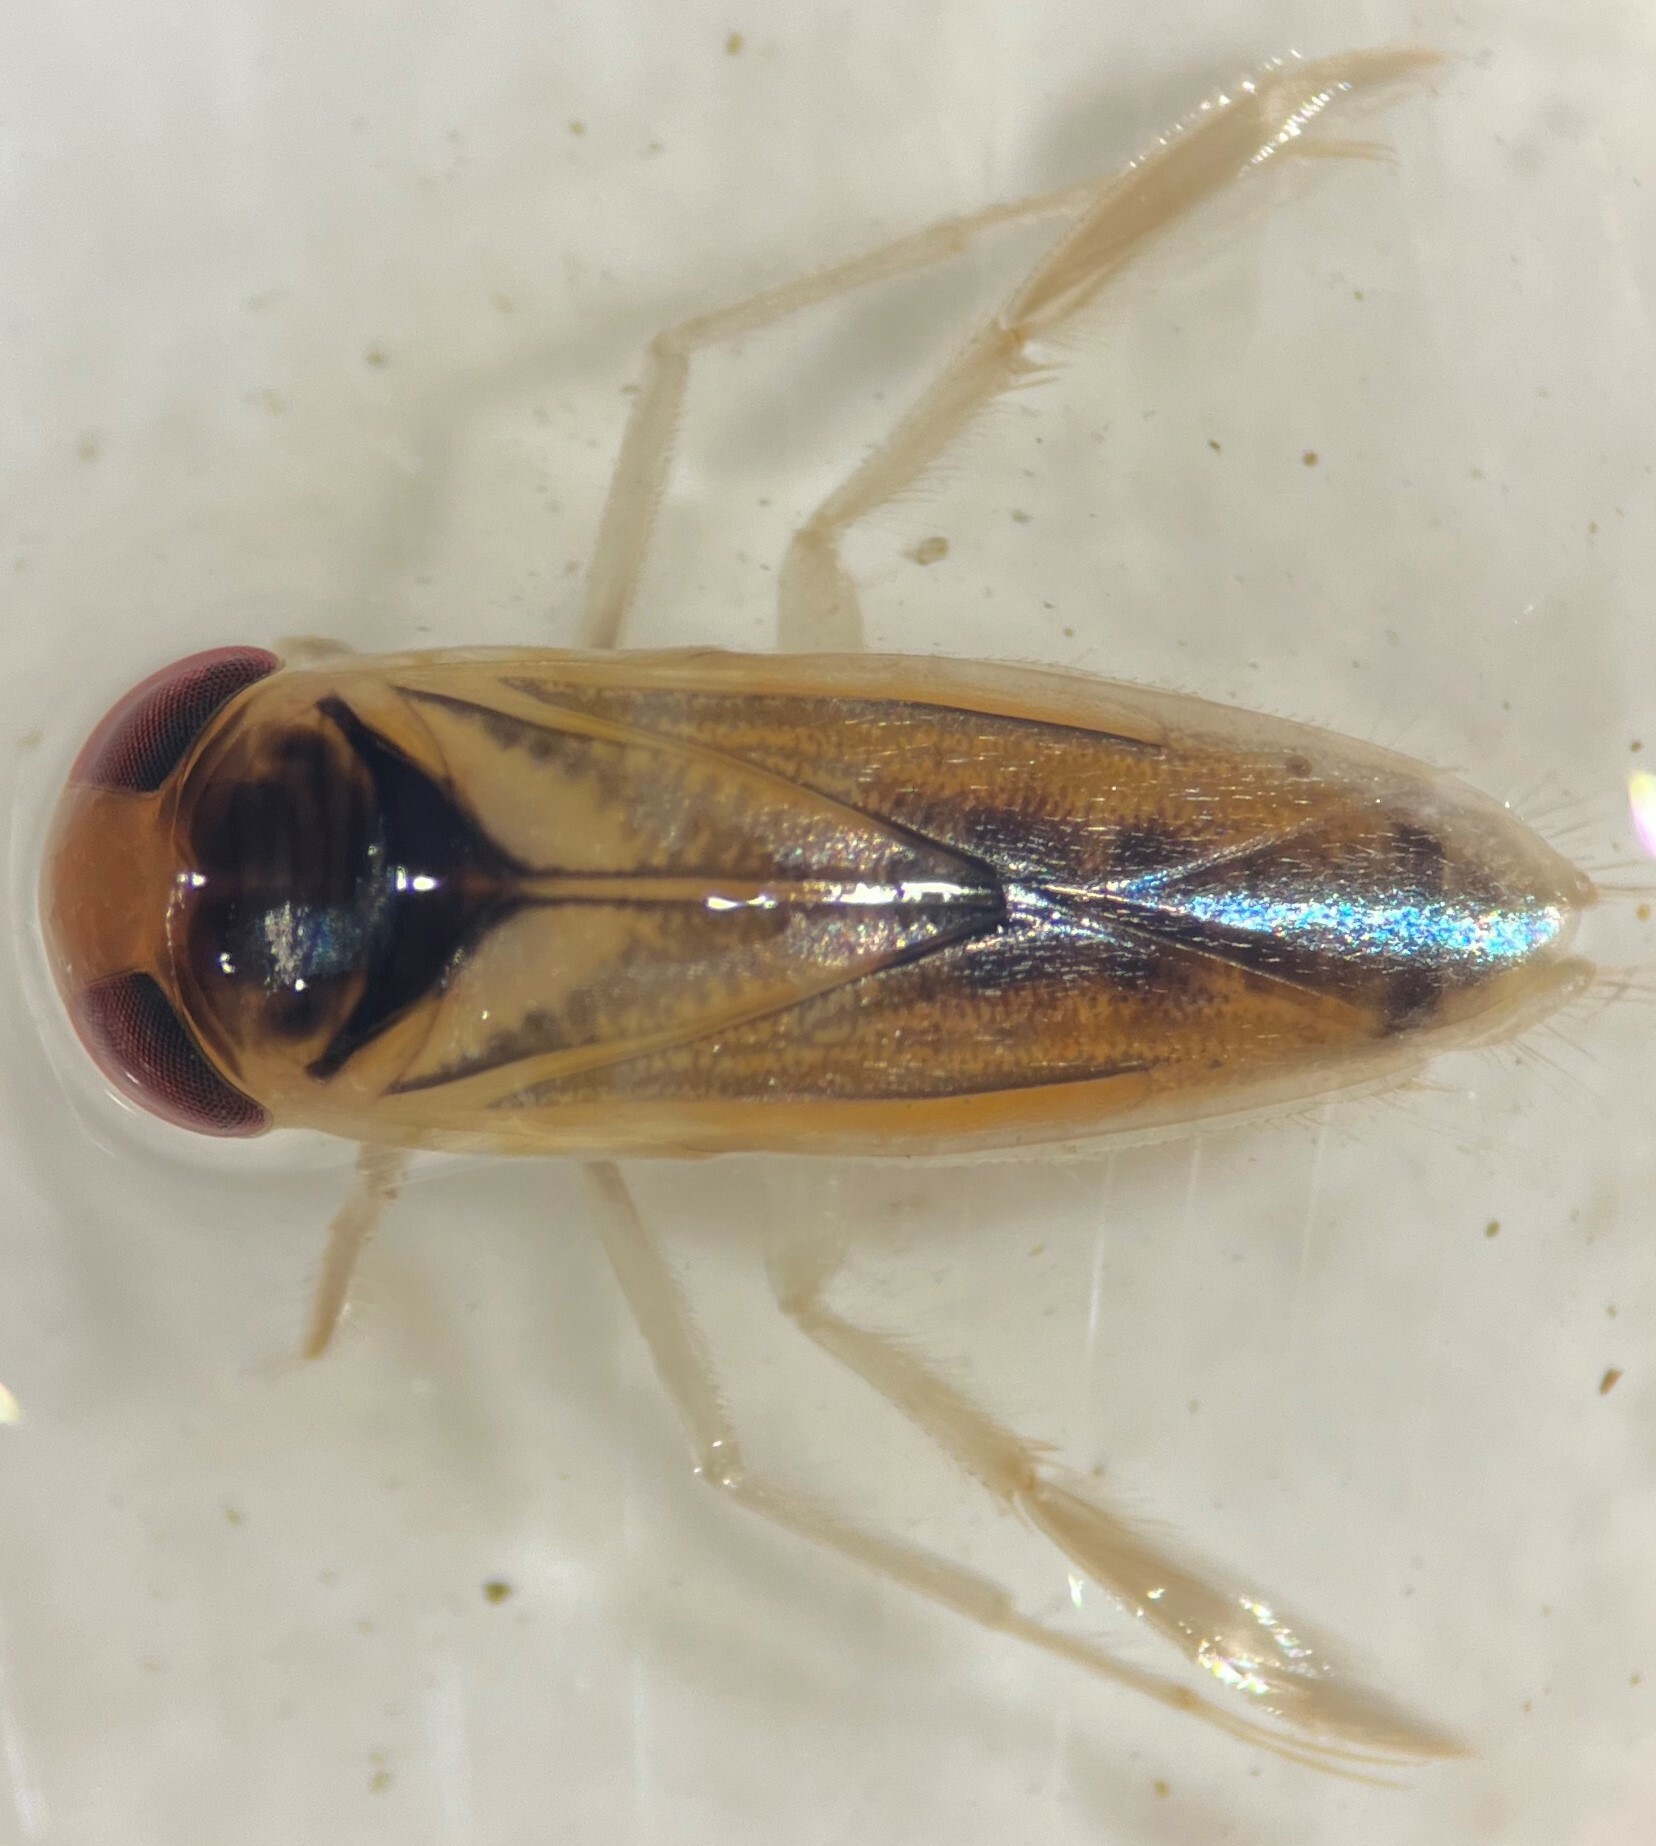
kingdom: Animalia
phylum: Arthropoda
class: Insecta
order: Hemiptera
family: Corixidae
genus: Ramphocorixa
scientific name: Ramphocorixa acuminata
